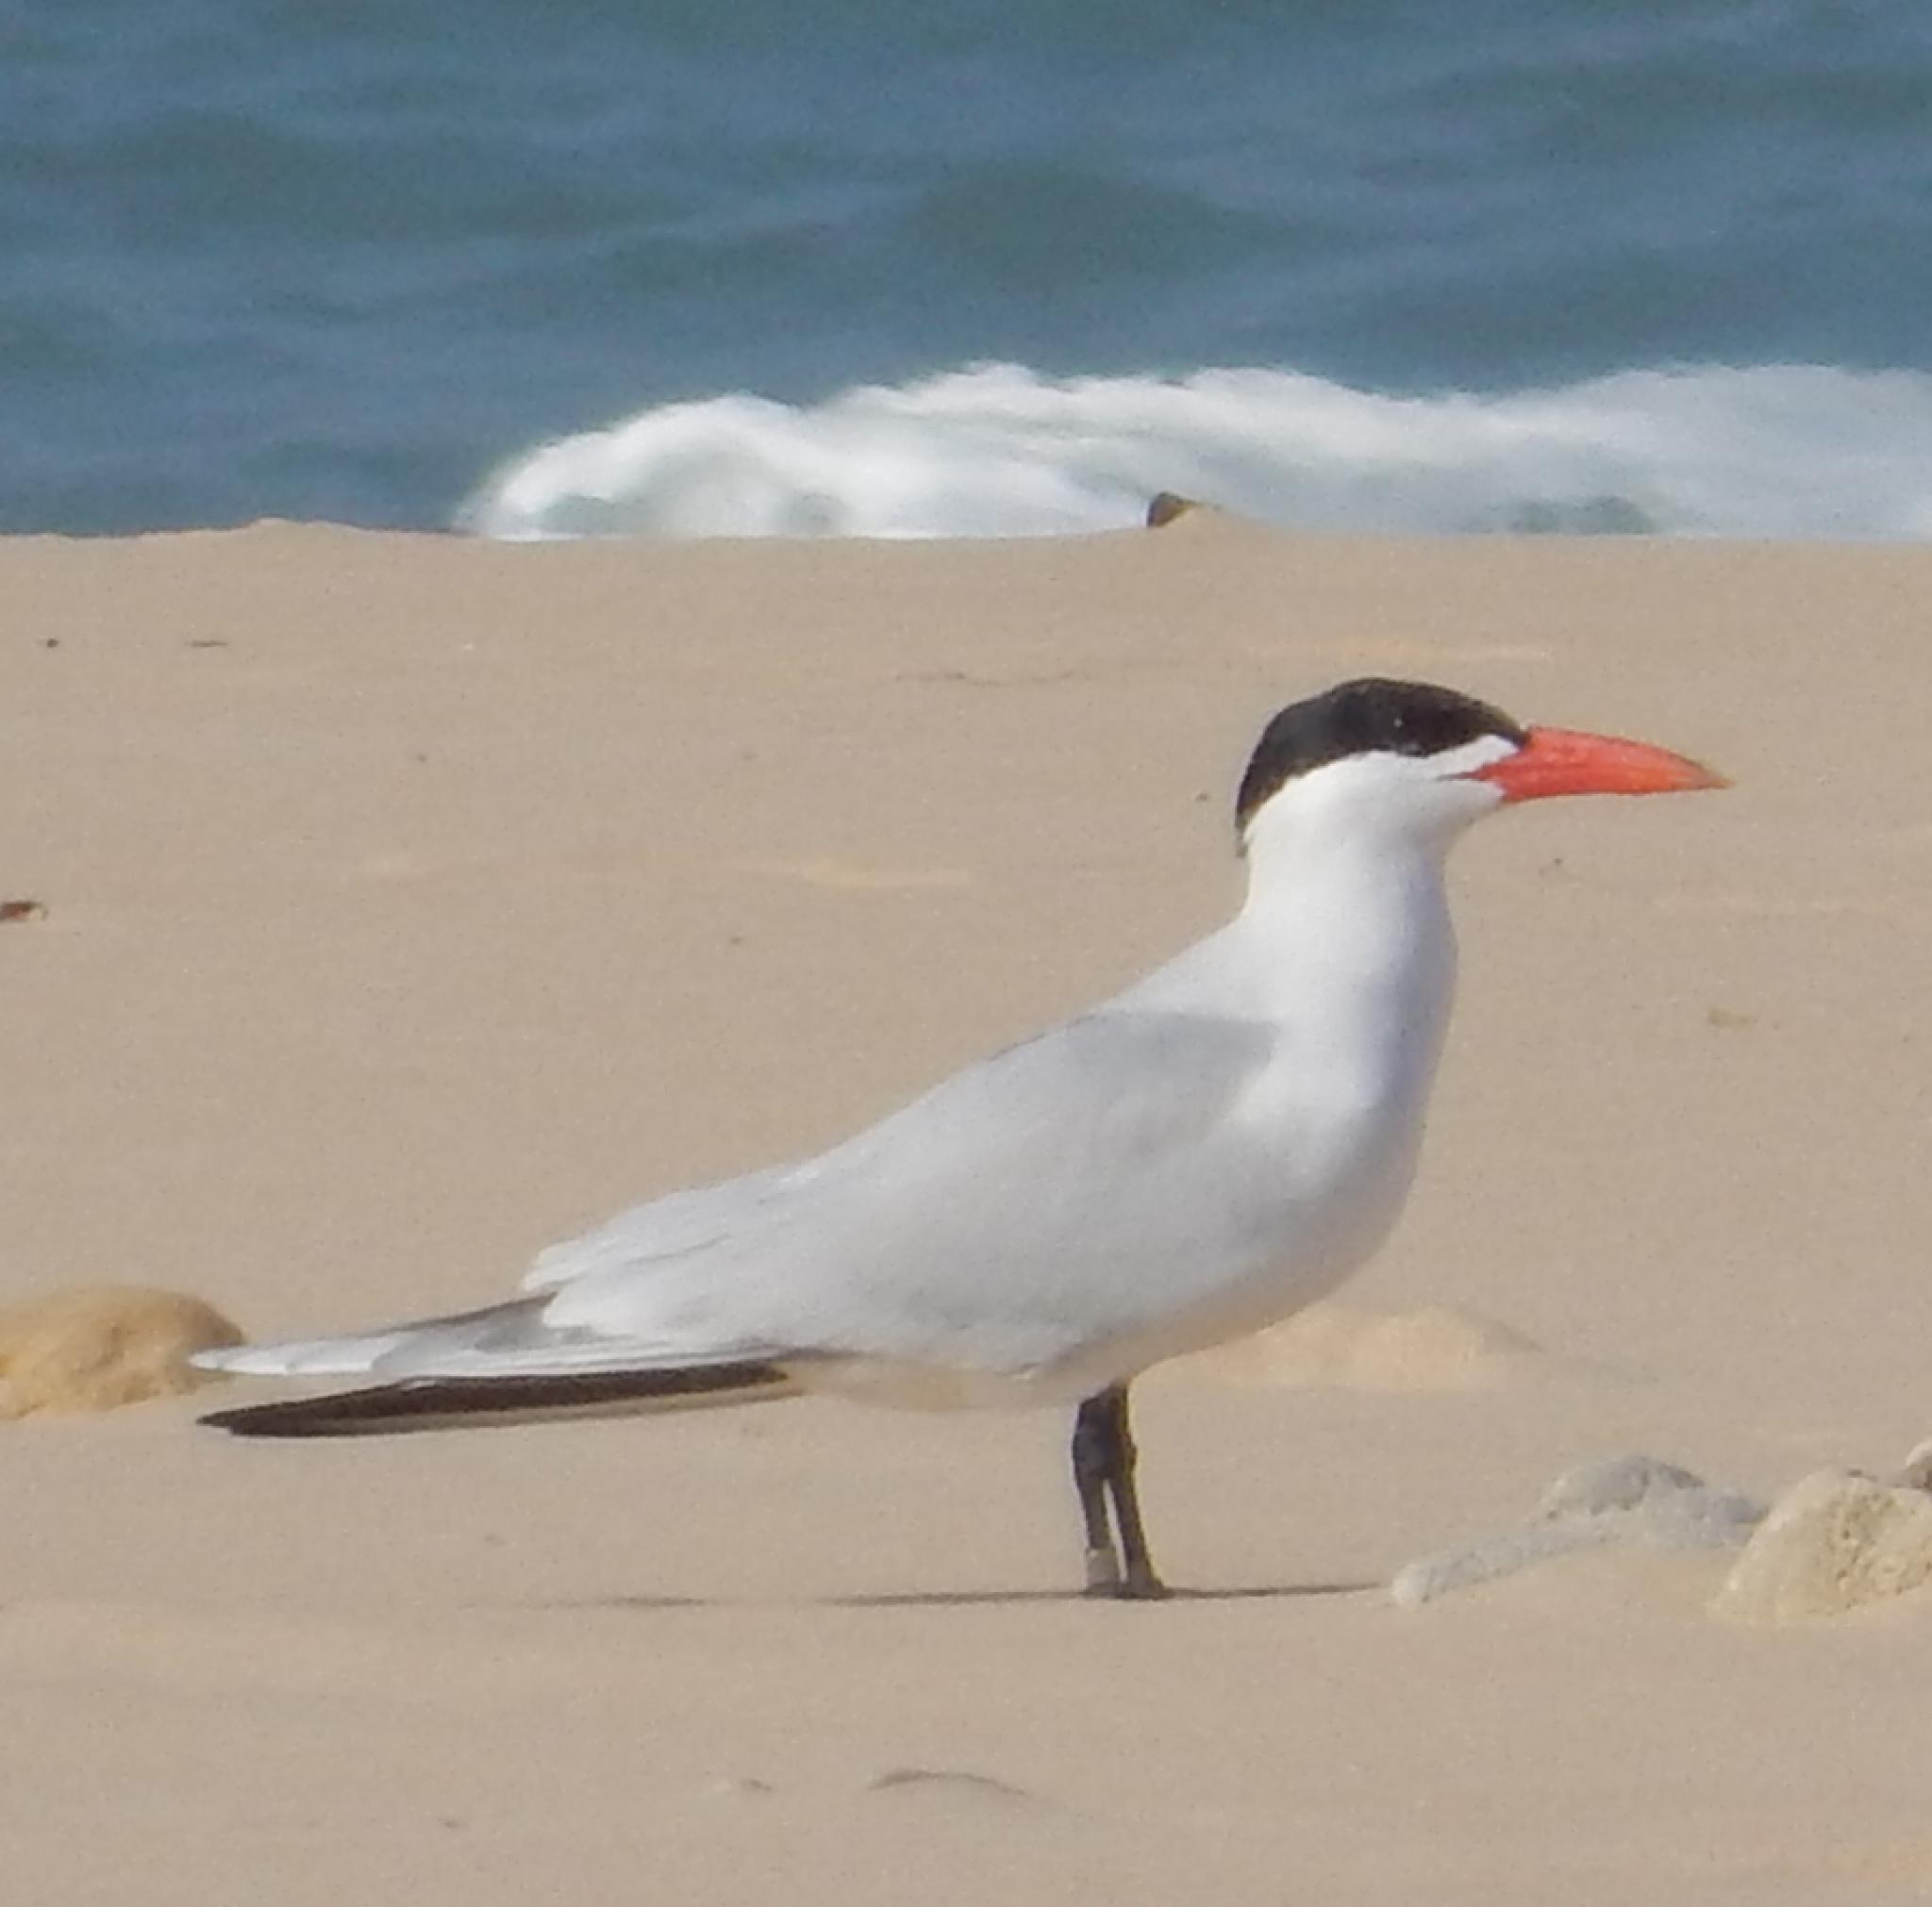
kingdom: Animalia
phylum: Chordata
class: Aves
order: Charadriiformes
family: Laridae
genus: Hydroprogne
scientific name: Hydroprogne caspia
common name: Caspian tern
